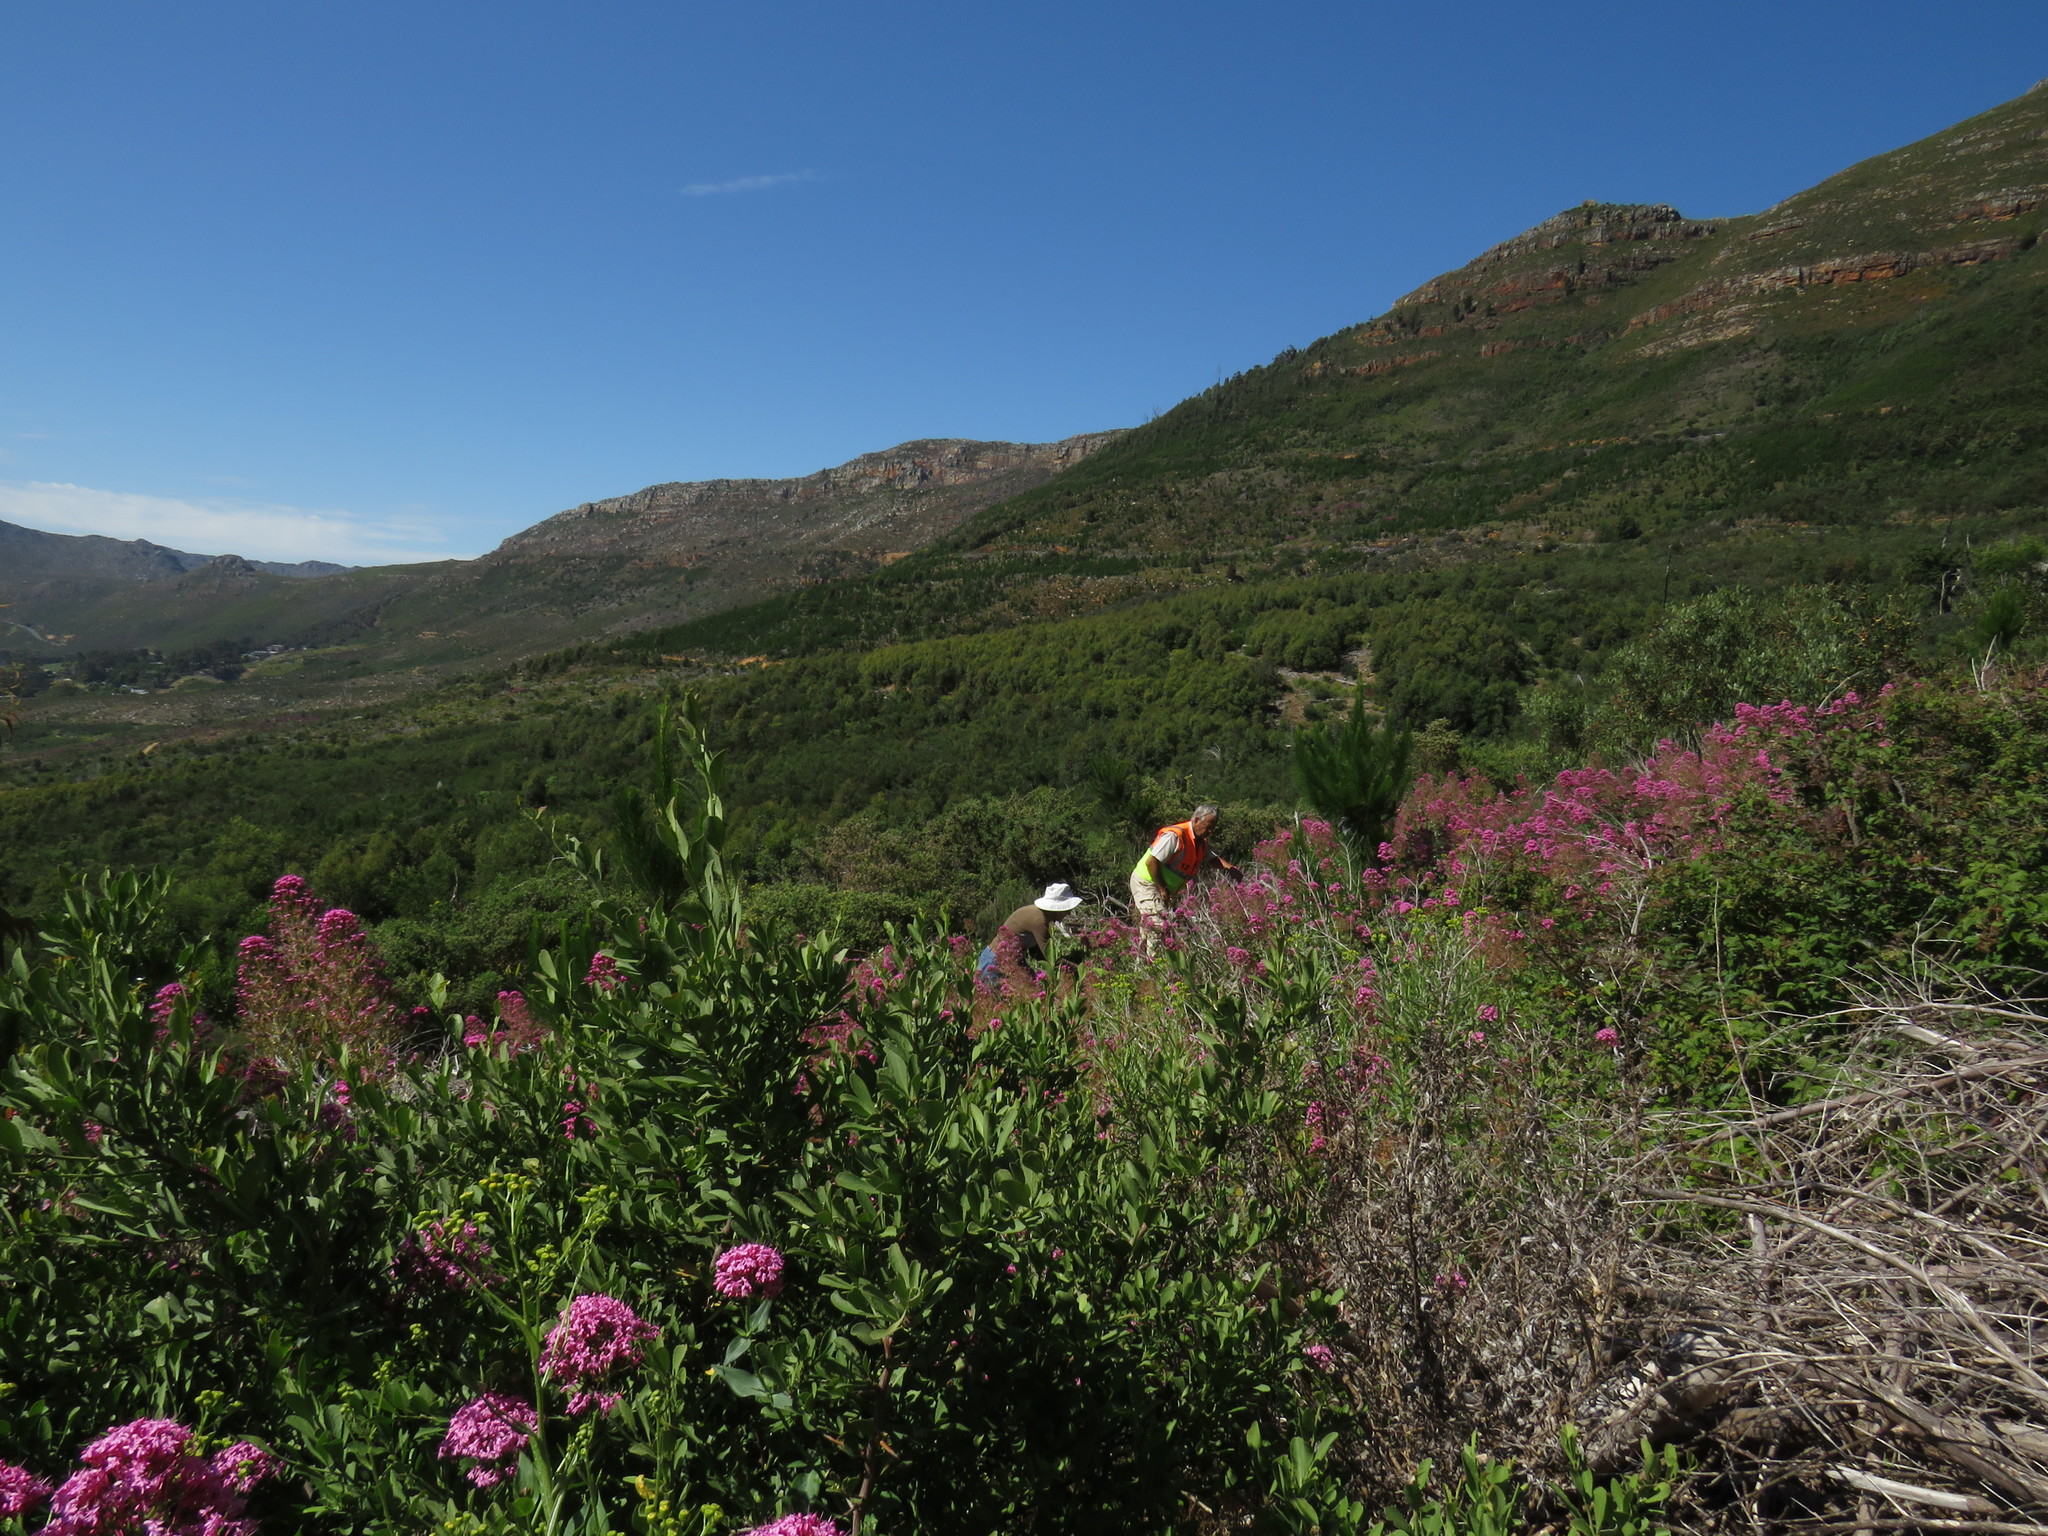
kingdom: Plantae
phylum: Tracheophyta
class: Magnoliopsida
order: Celastrales
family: Celastraceae
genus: Gymnosporia
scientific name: Gymnosporia buxifolia
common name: Common spike-thorn
